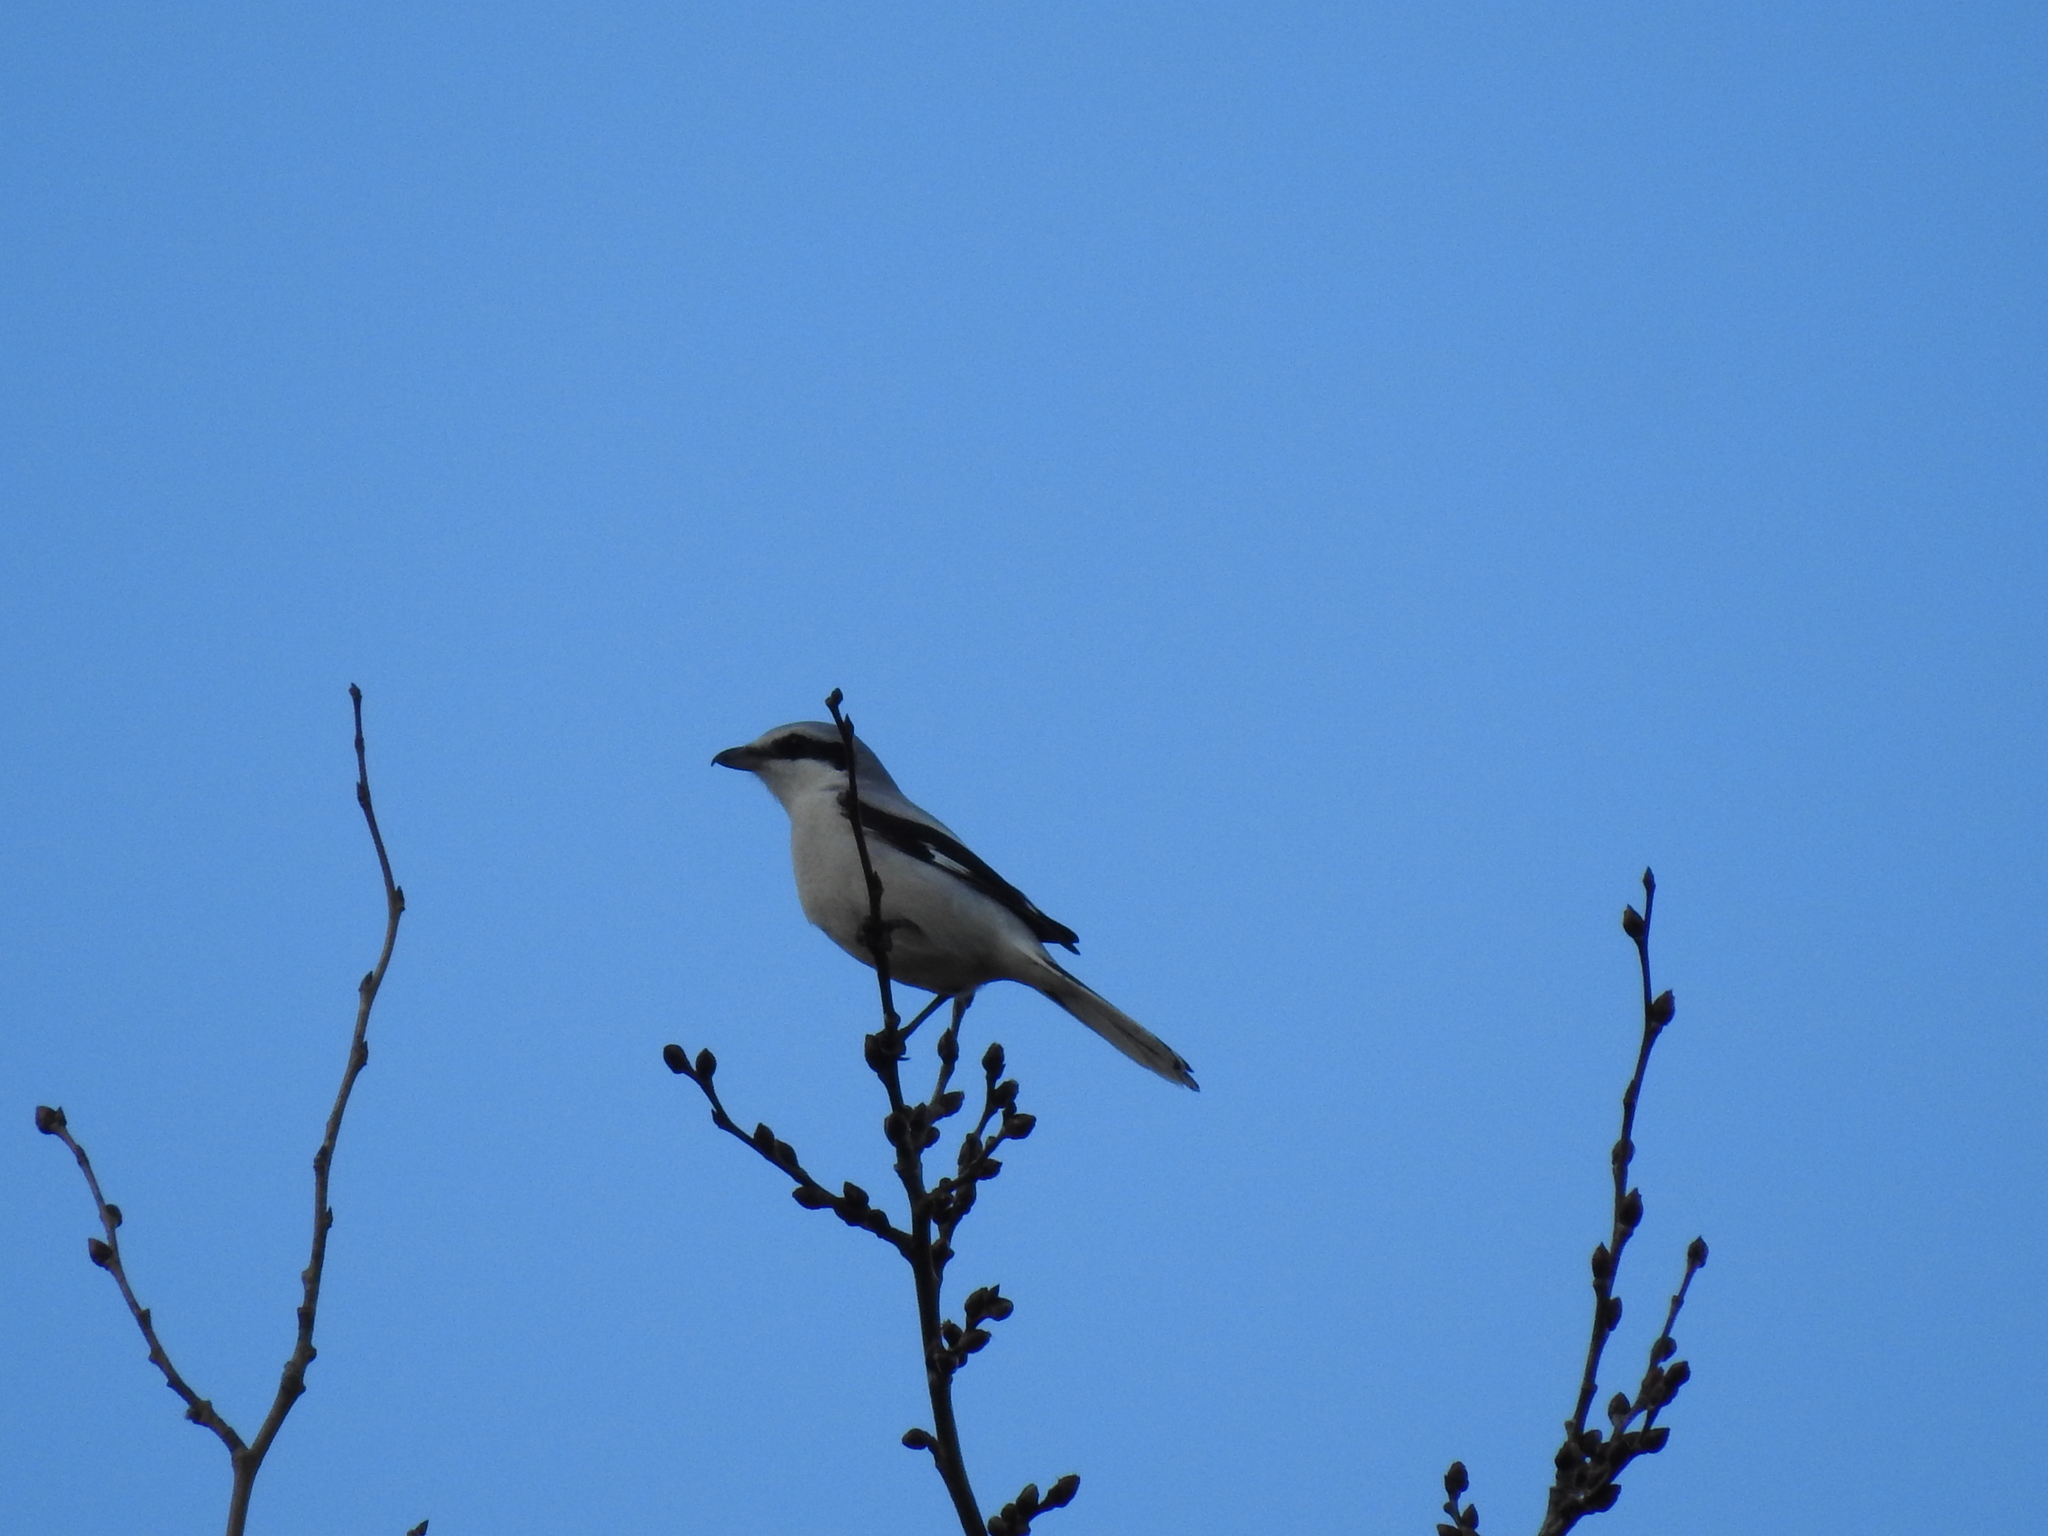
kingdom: Animalia
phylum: Chordata
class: Aves
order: Passeriformes
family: Laniidae
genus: Lanius
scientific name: Lanius excubitor
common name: Great grey shrike
